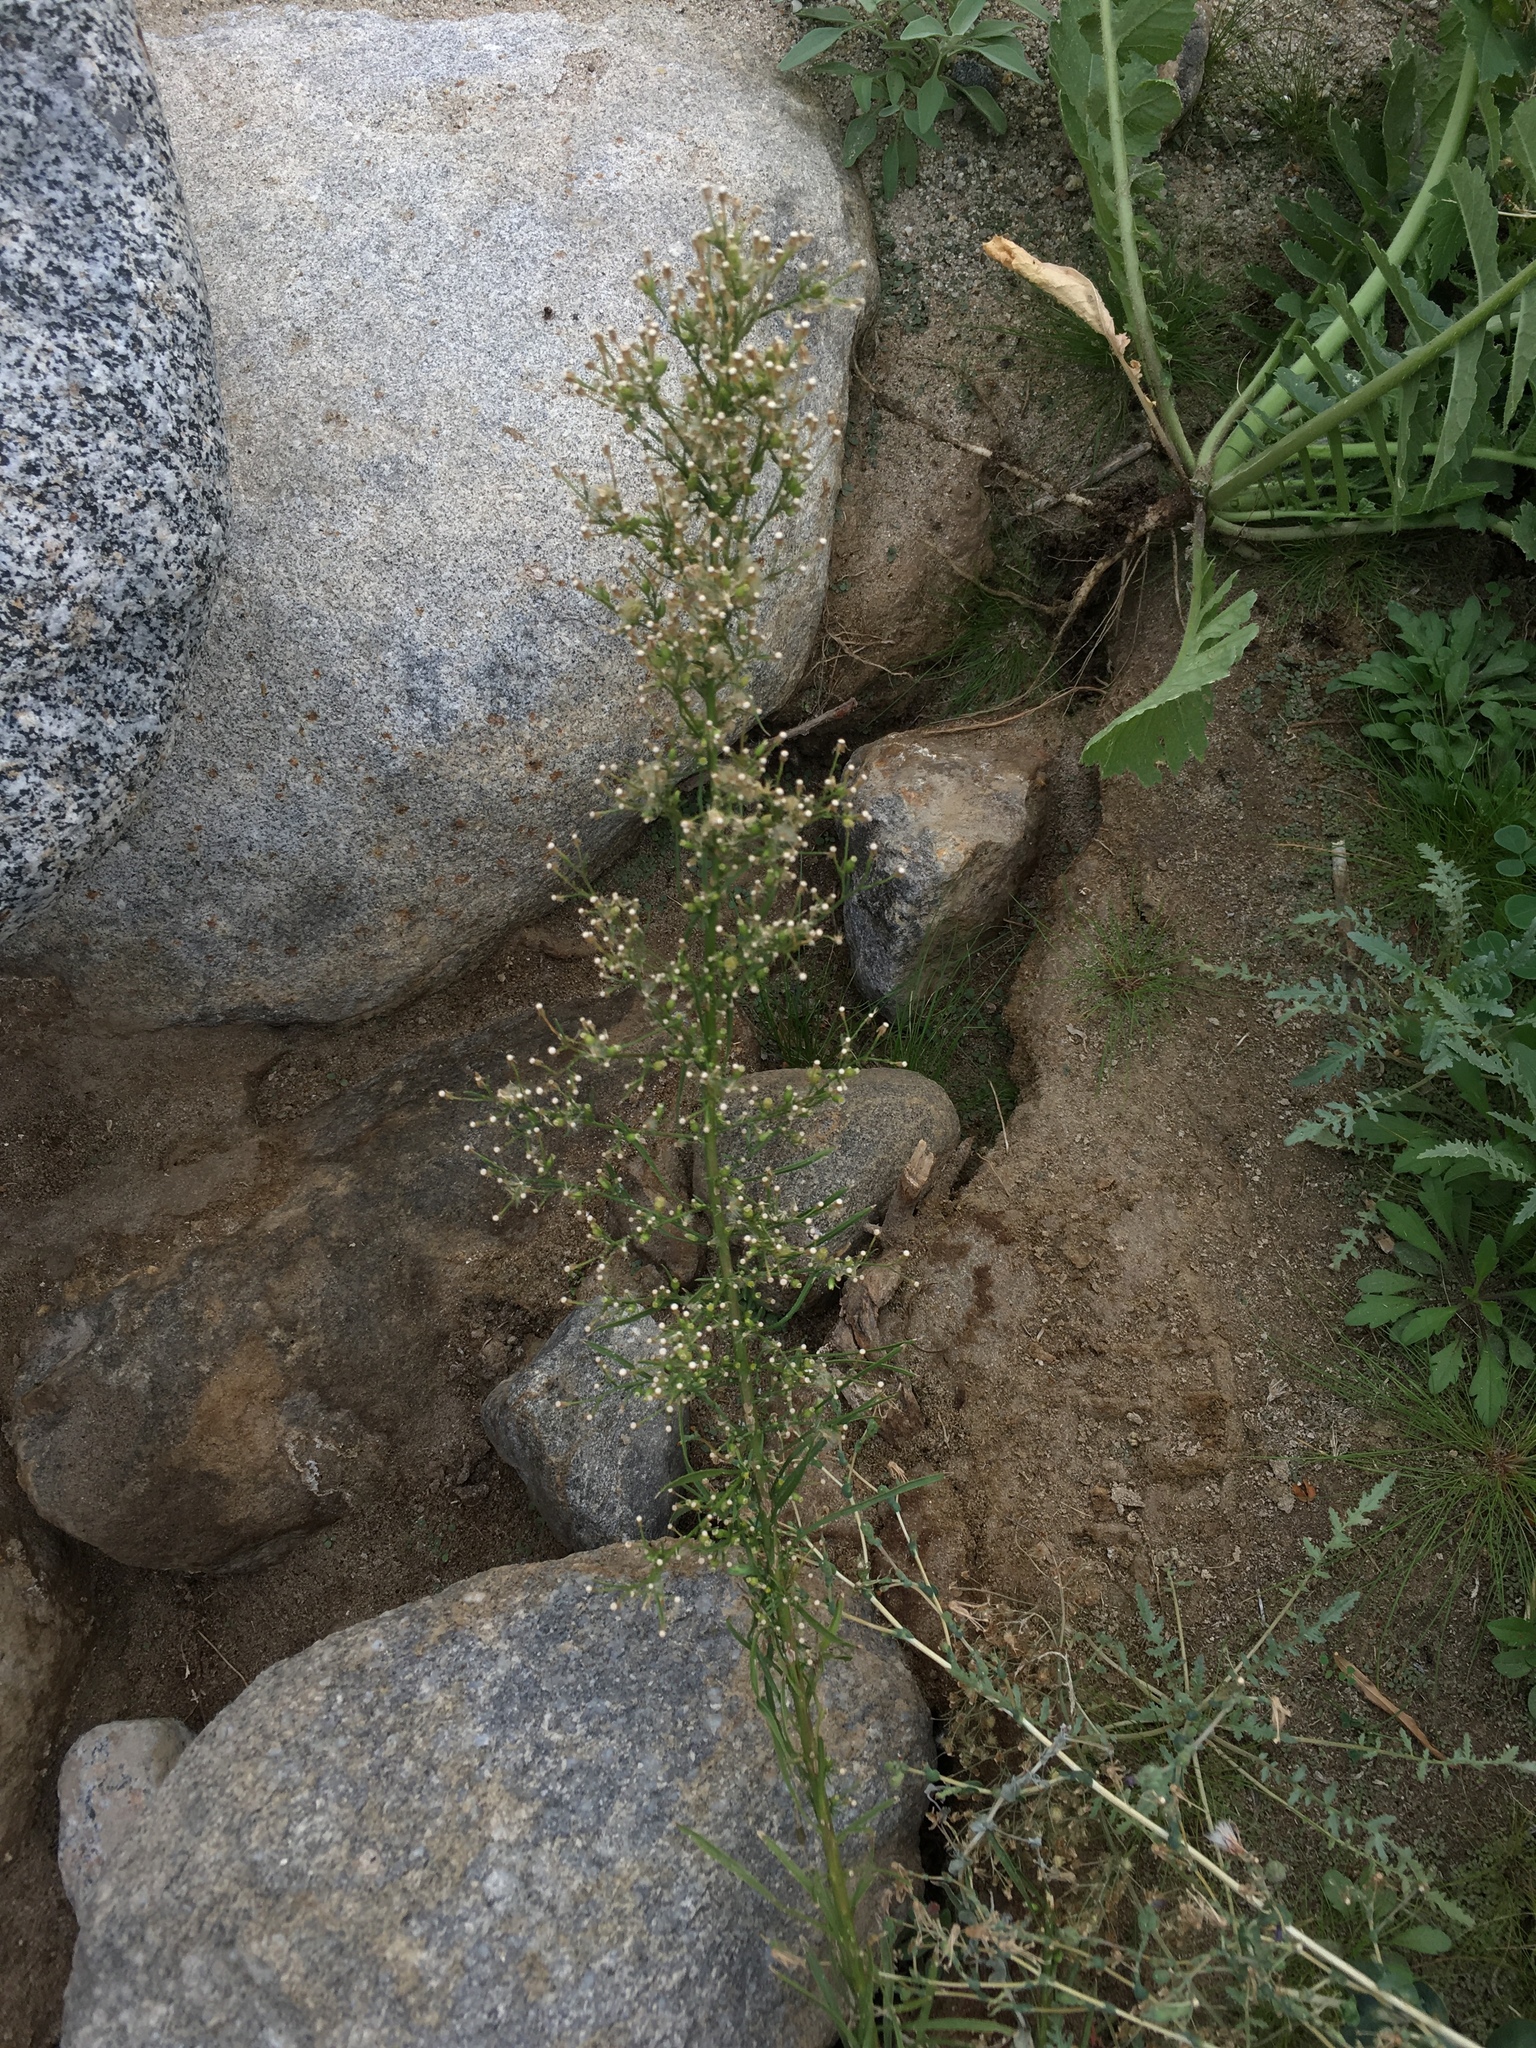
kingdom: Plantae
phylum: Tracheophyta
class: Magnoliopsida
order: Asterales
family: Asteraceae
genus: Erigeron
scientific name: Erigeron canadensis
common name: Canadian fleabane
